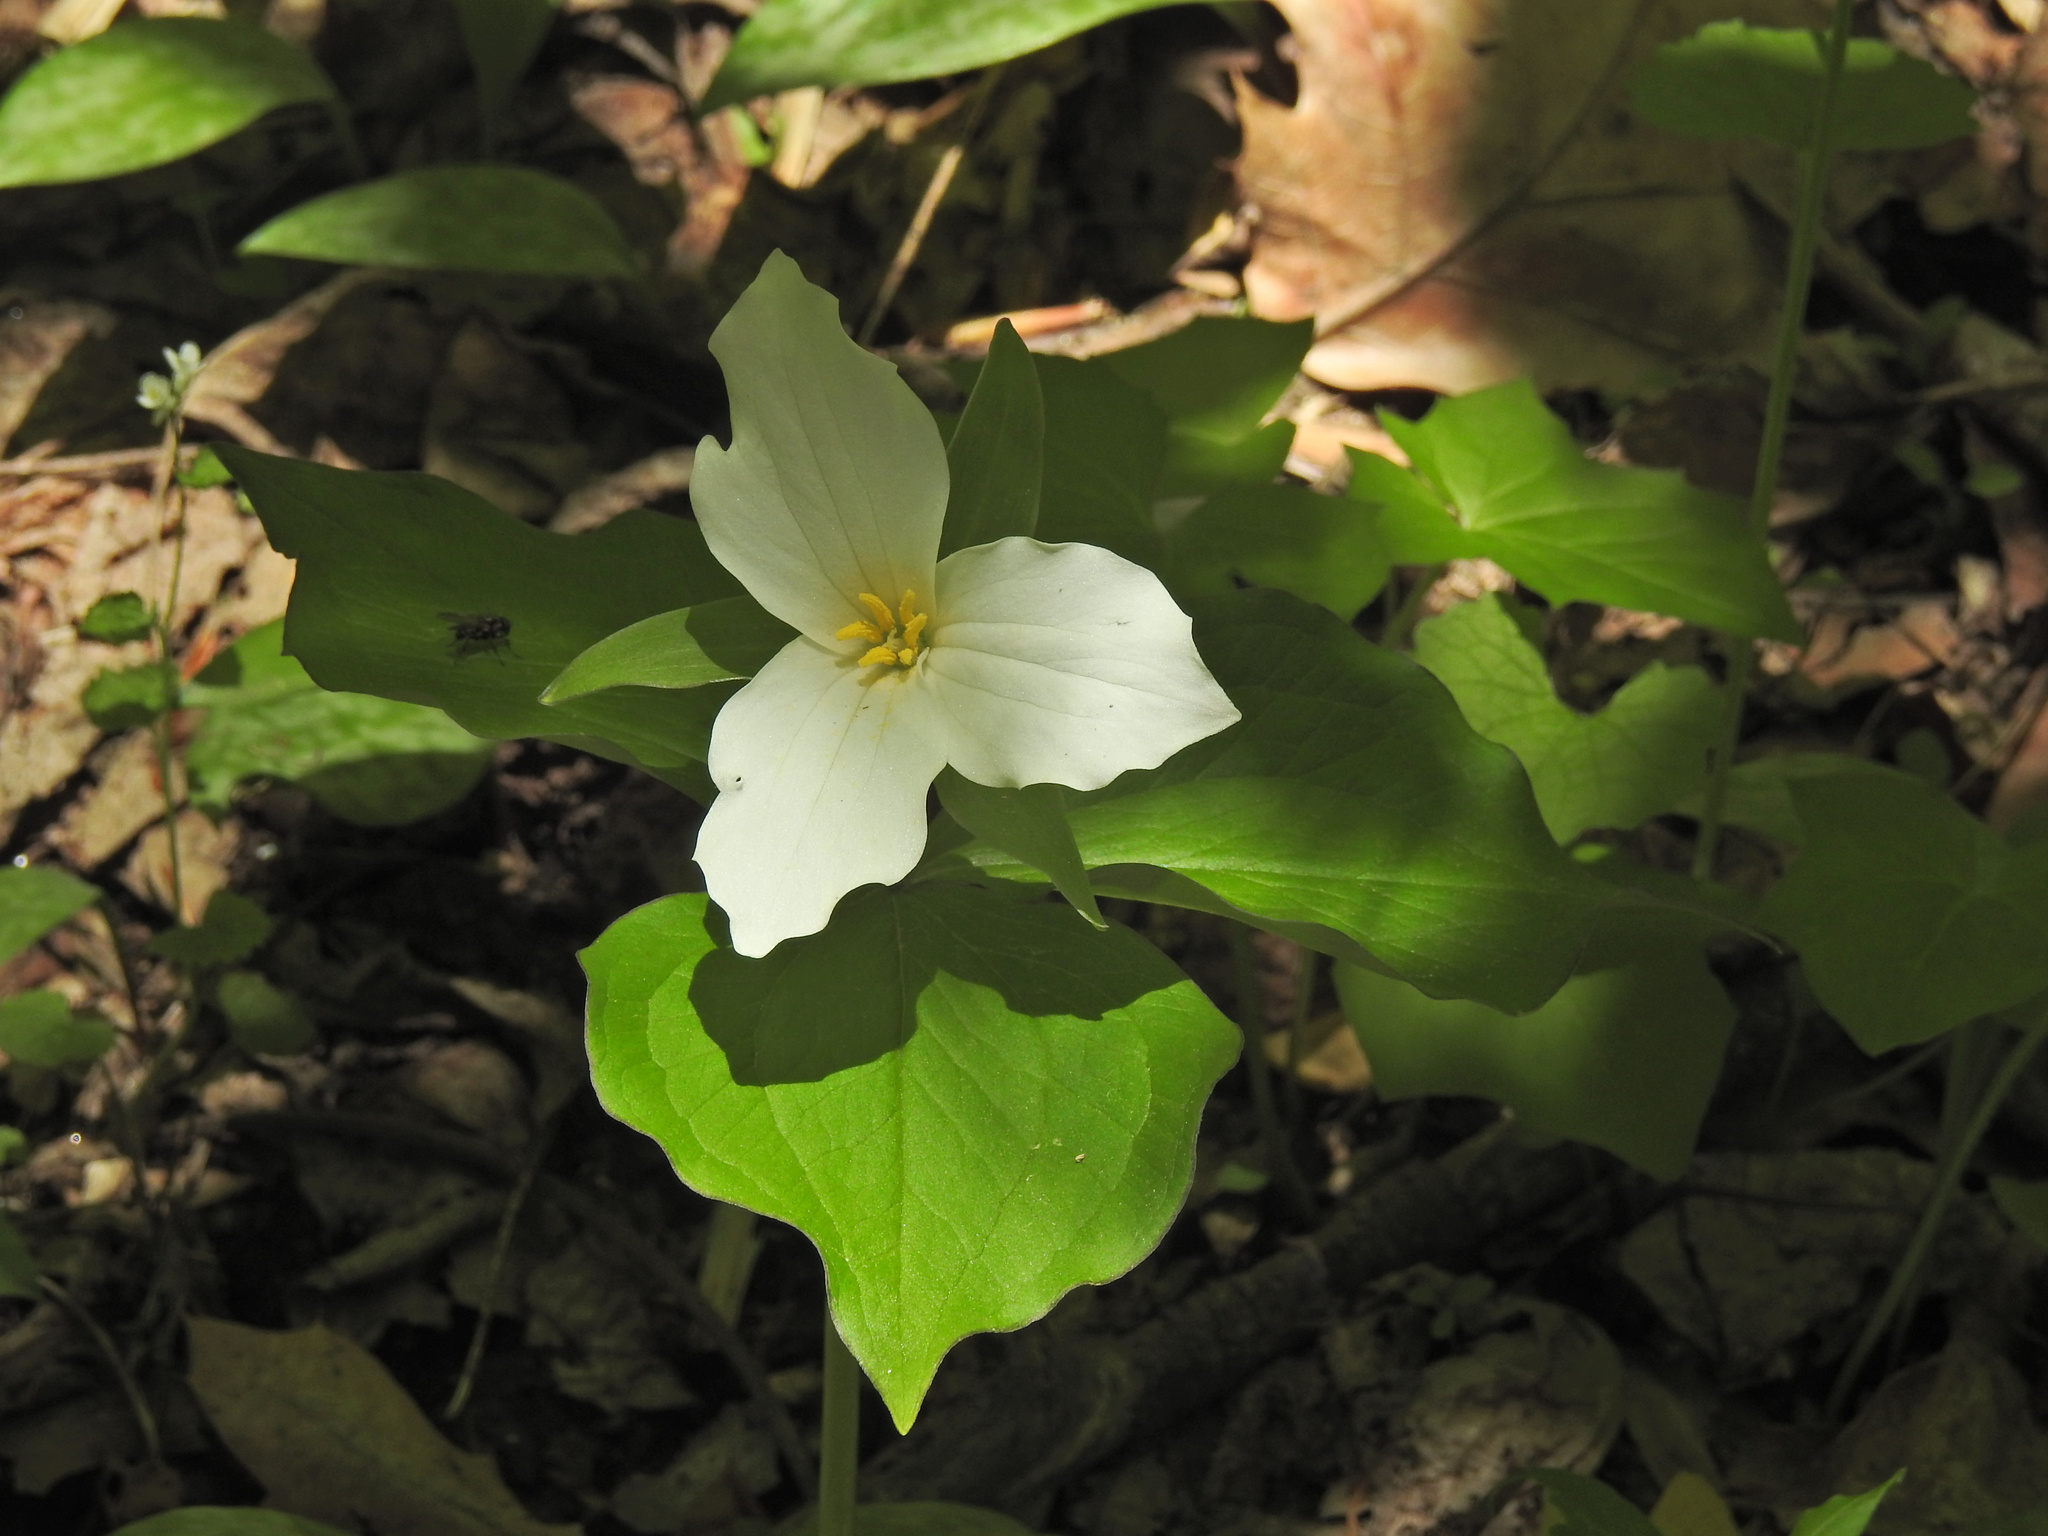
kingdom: Plantae
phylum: Tracheophyta
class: Liliopsida
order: Liliales
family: Melanthiaceae
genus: Trillium
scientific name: Trillium grandiflorum
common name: Great white trillium
